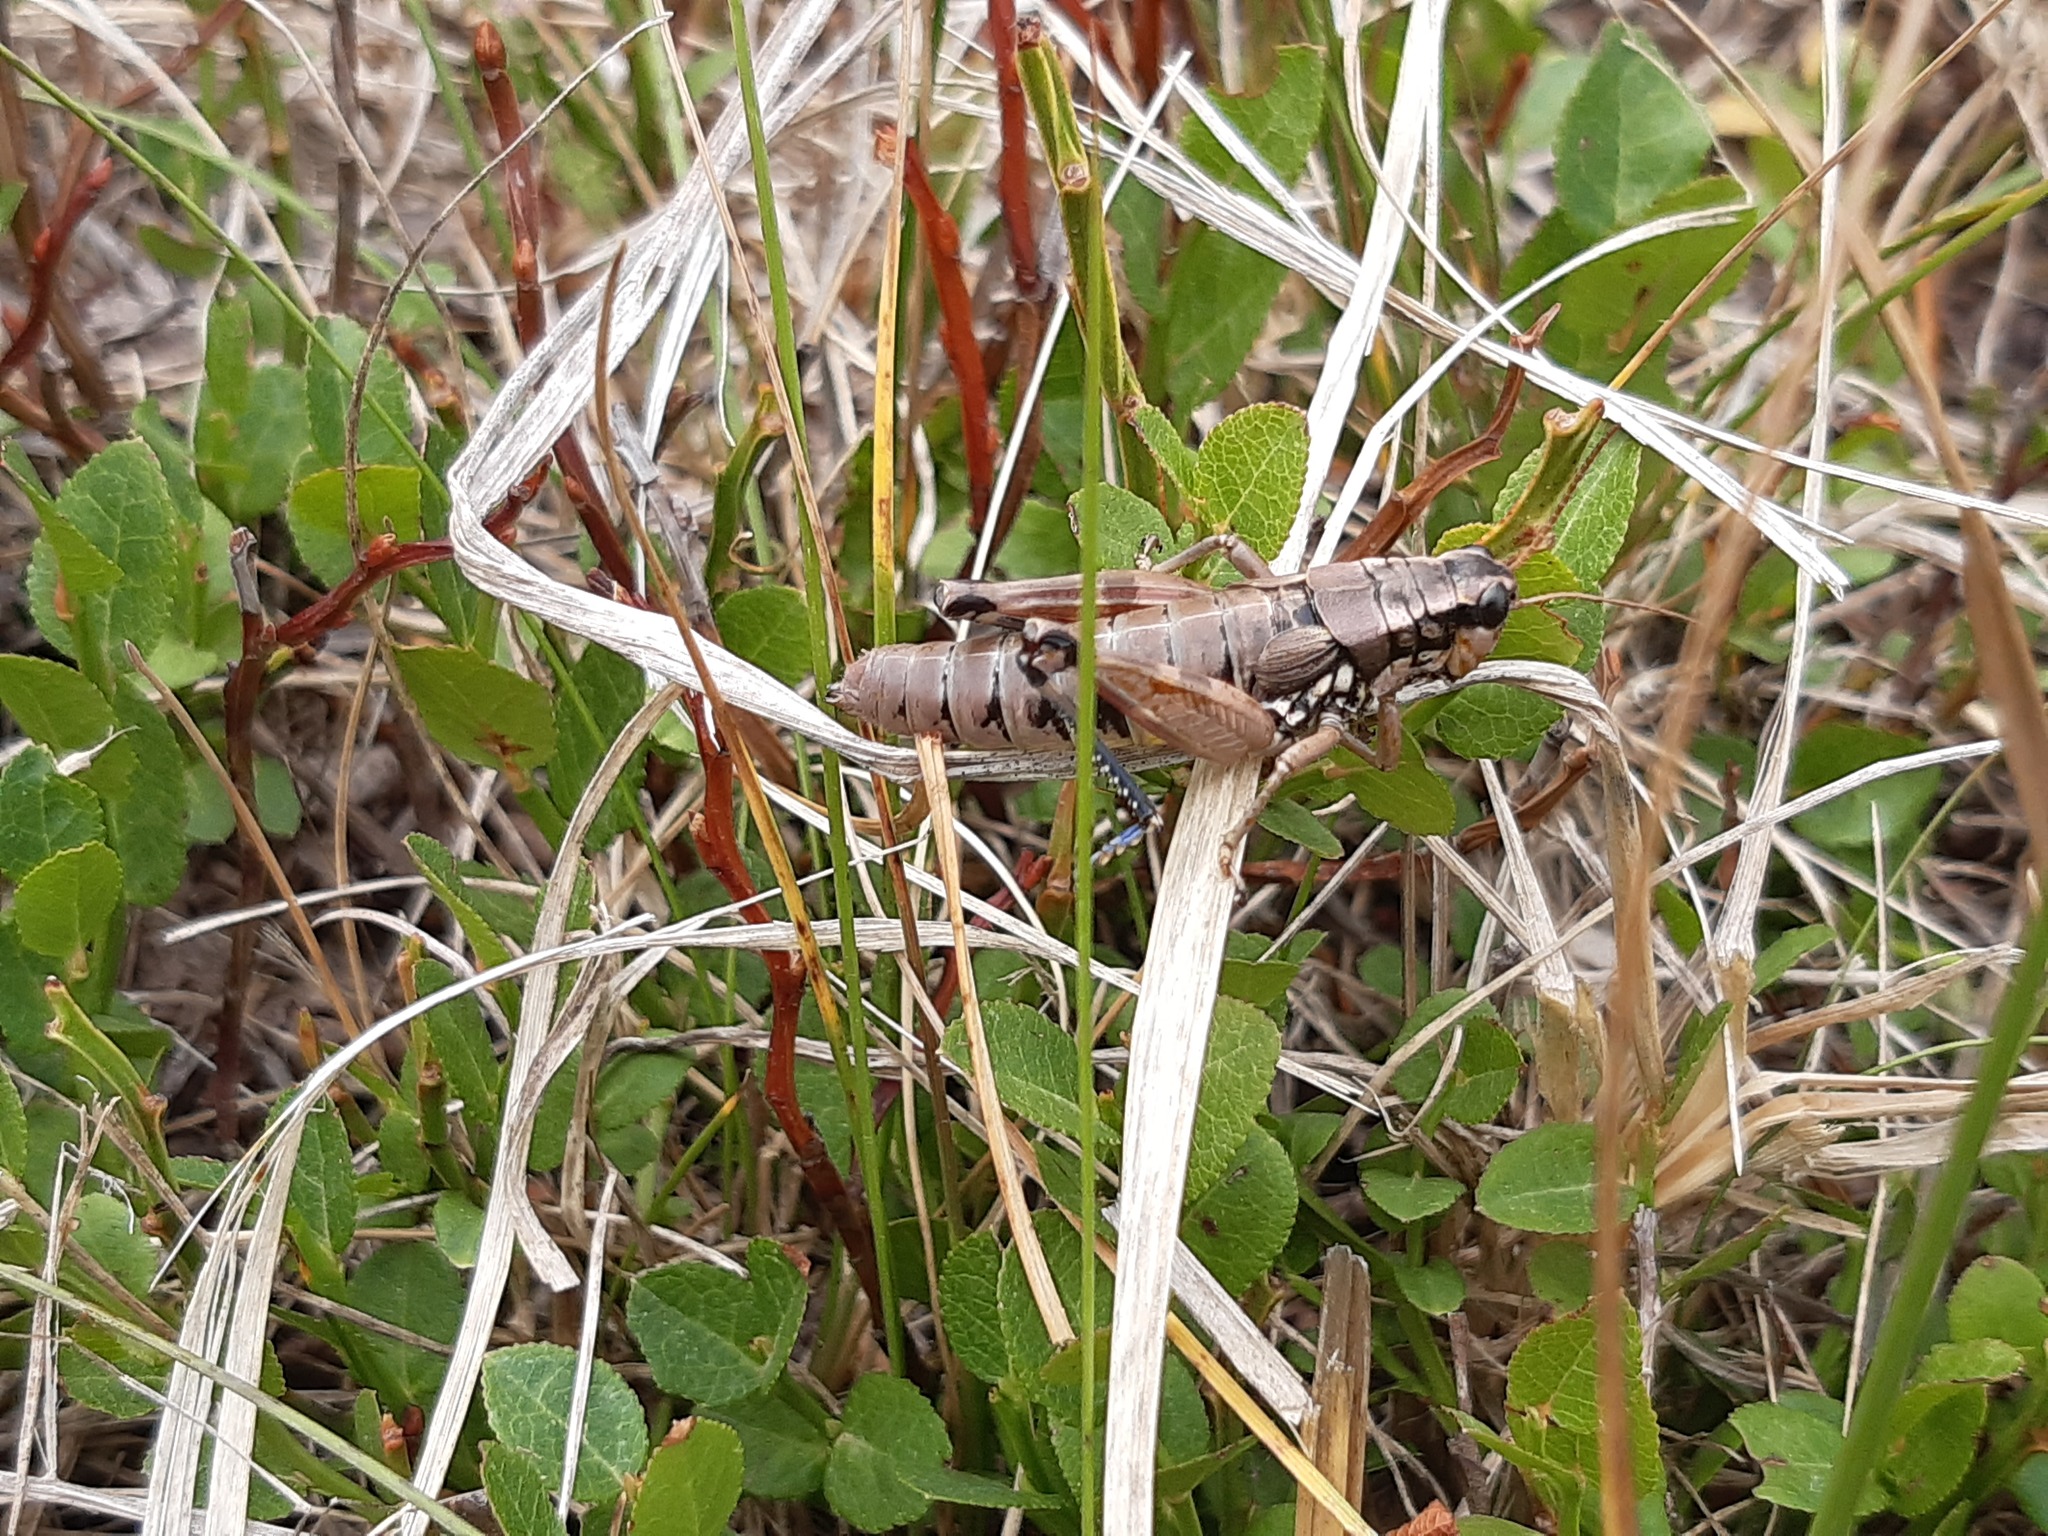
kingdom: Animalia
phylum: Arthropoda
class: Insecta
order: Orthoptera
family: Acrididae
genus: Podisma
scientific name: Podisma pedestris
